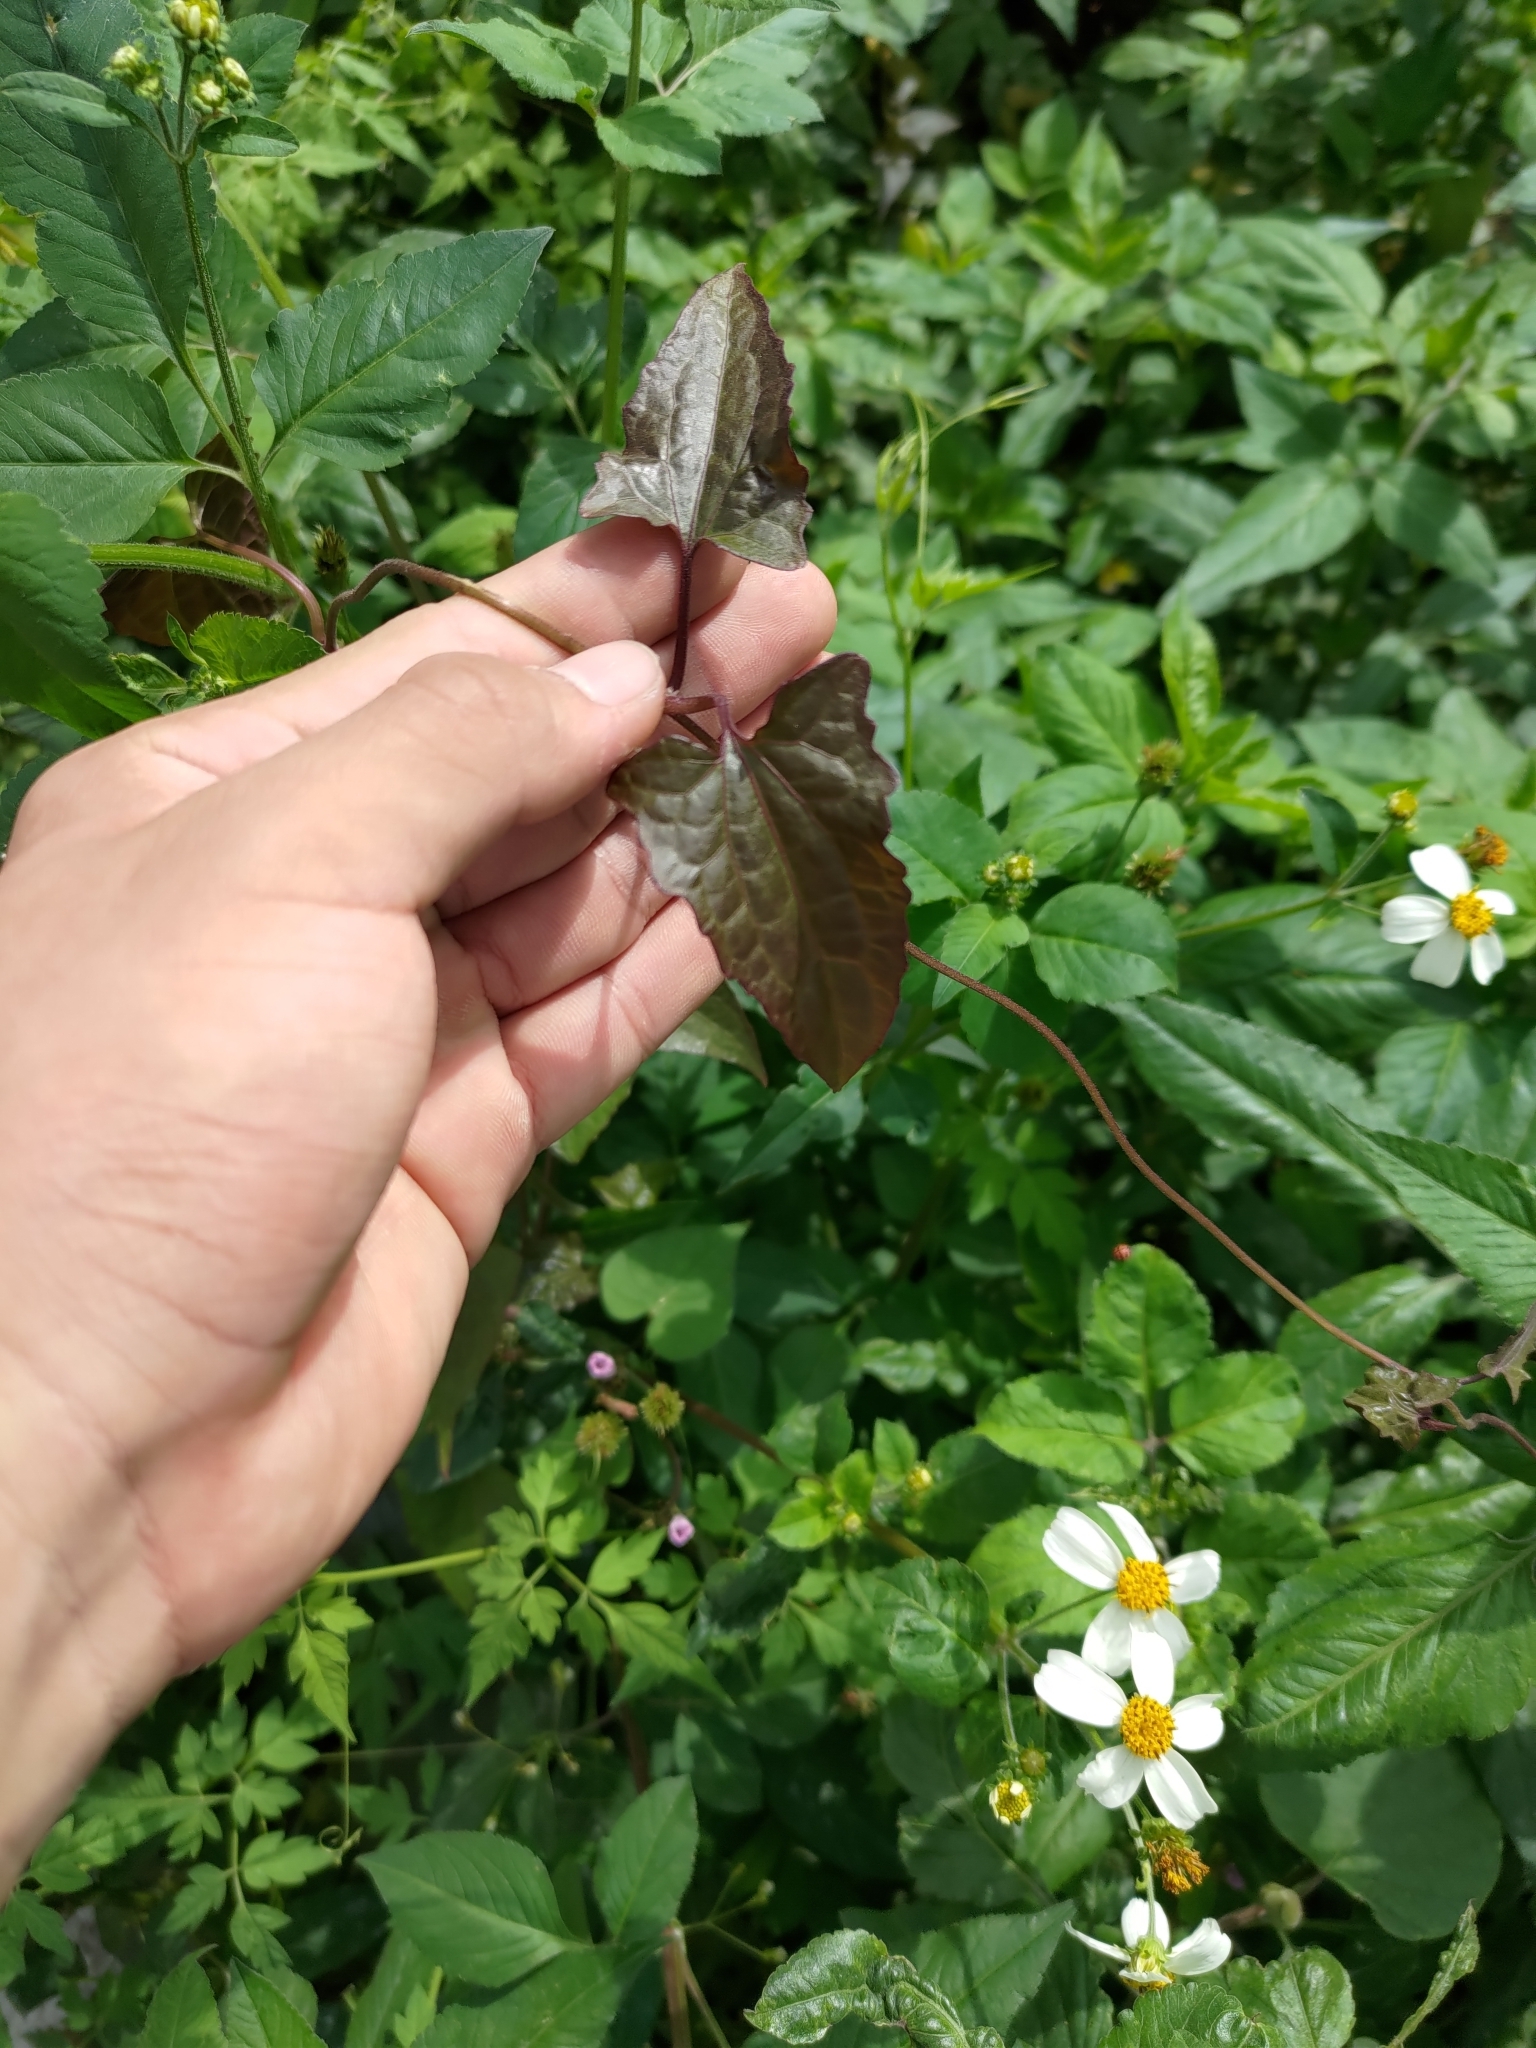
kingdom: Plantae
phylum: Tracheophyta
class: Magnoliopsida
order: Asterales
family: Asteraceae
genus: Mikania
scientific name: Mikania micrantha
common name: Mile-a-minute
